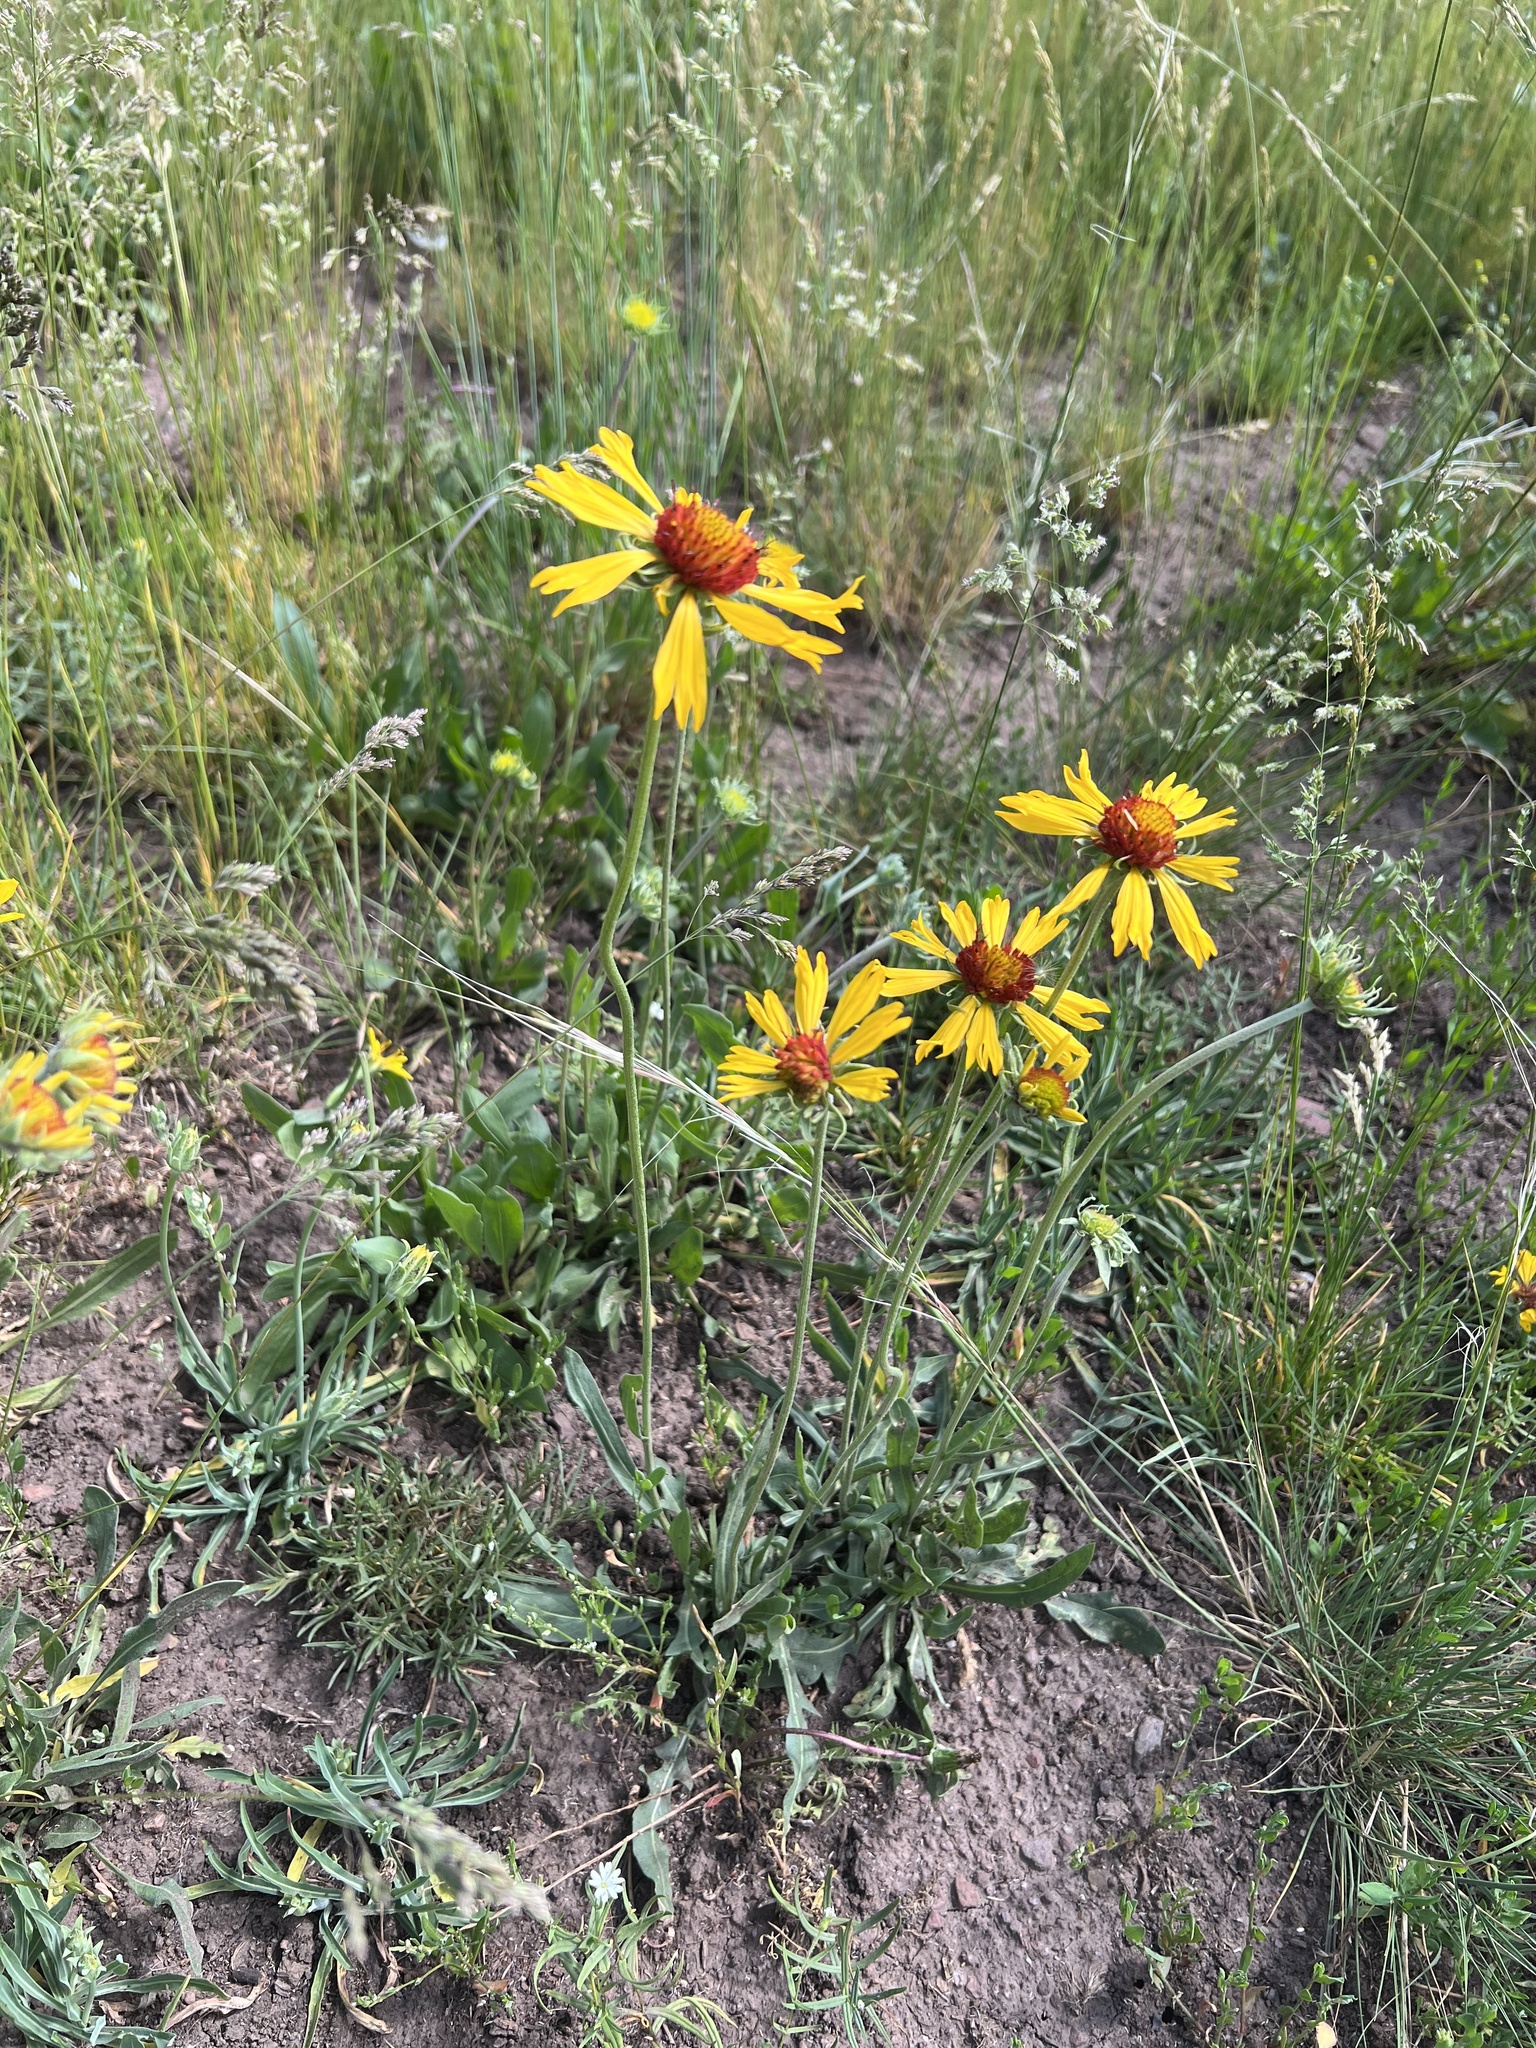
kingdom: Plantae
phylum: Tracheophyta
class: Magnoliopsida
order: Asterales
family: Asteraceae
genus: Gaillardia
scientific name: Gaillardia aristata
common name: Blanket-flower
